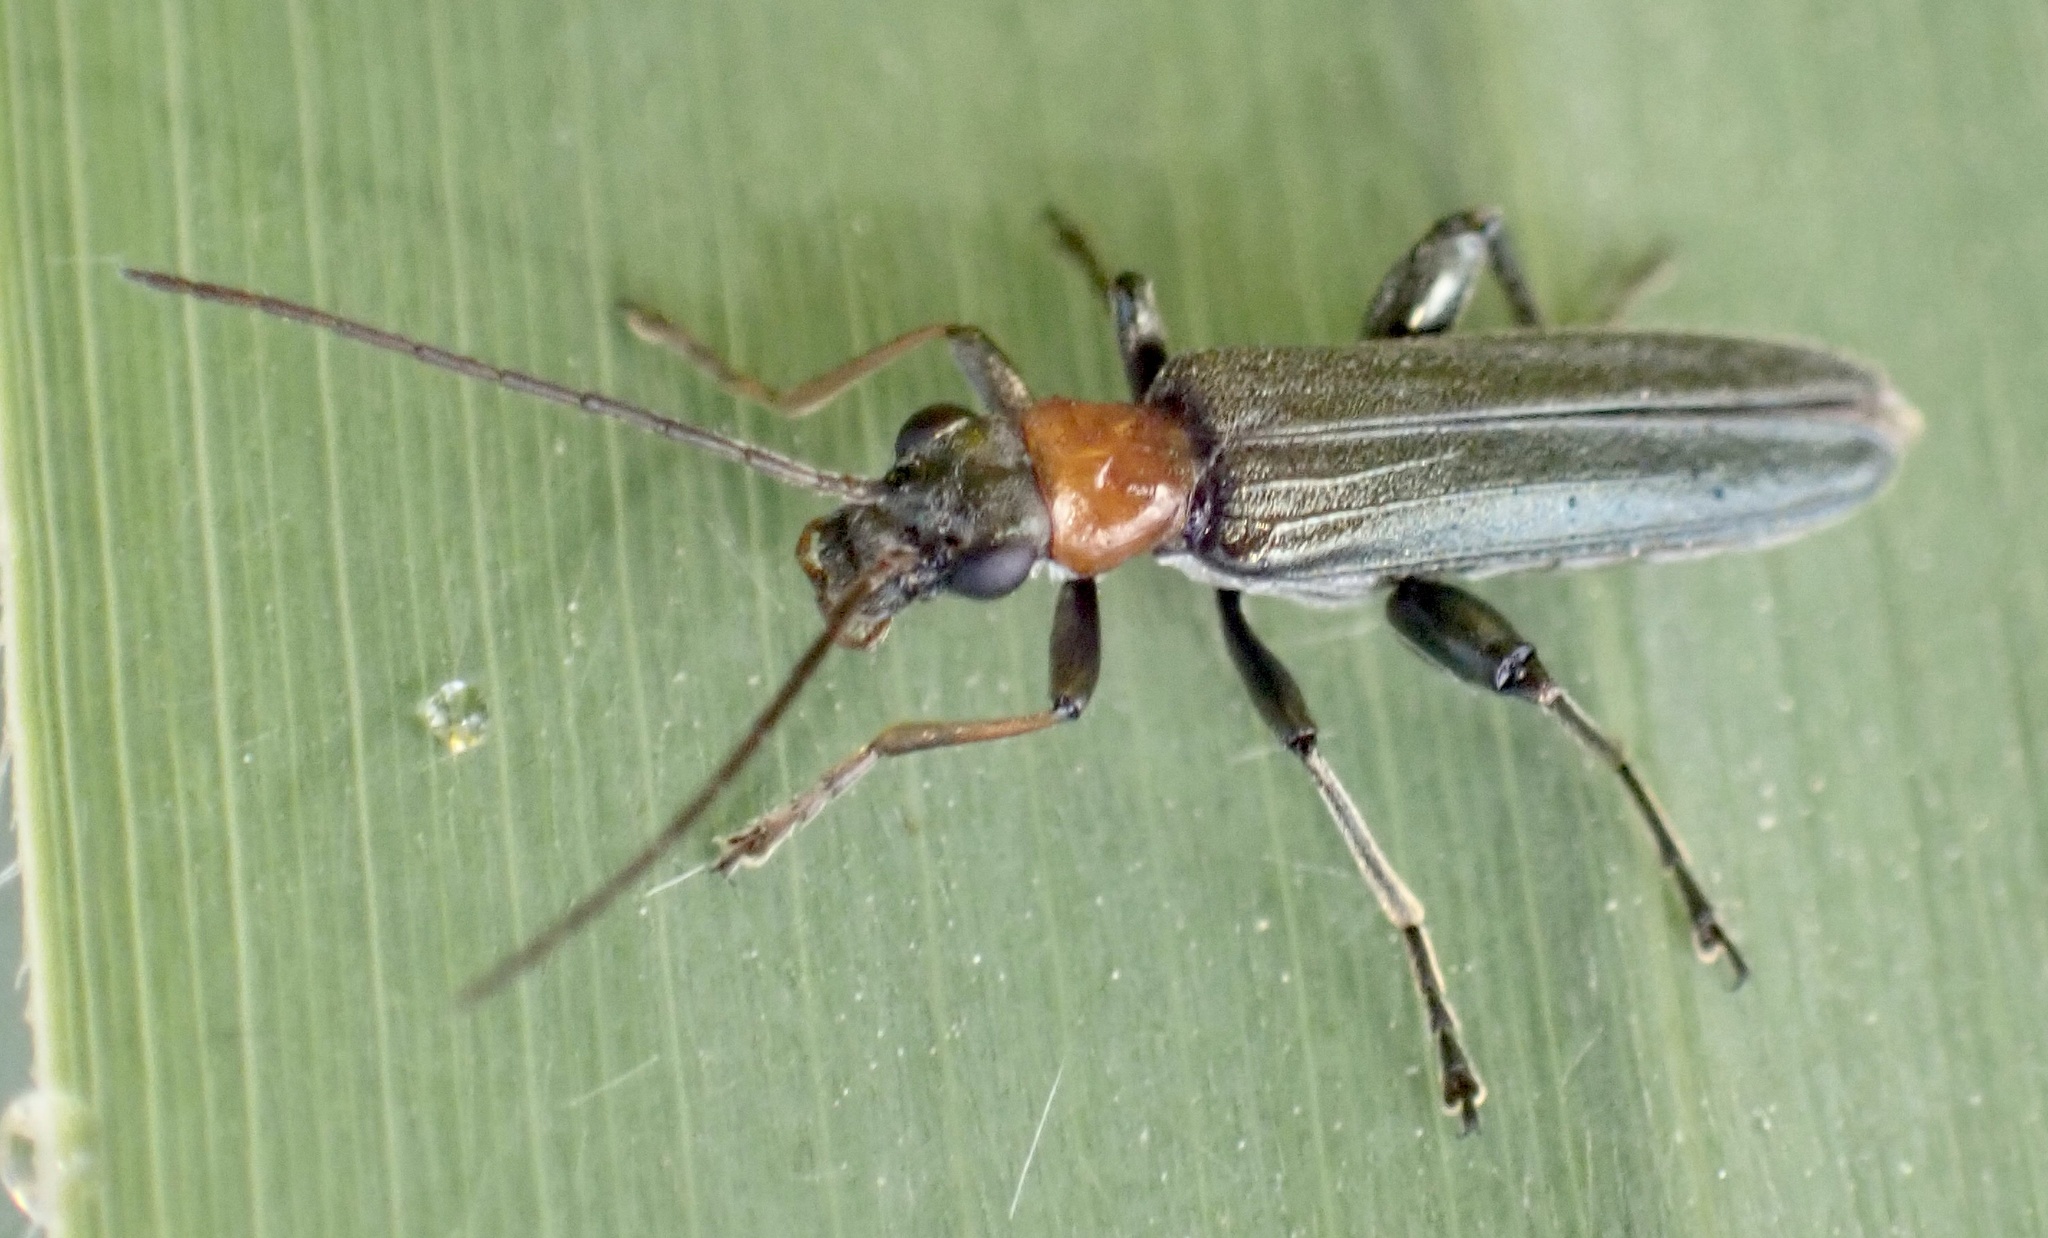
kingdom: Animalia
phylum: Arthropoda
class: Insecta
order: Coleoptera
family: Oedemeridae
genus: Oedemera
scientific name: Oedemera croceicollis
